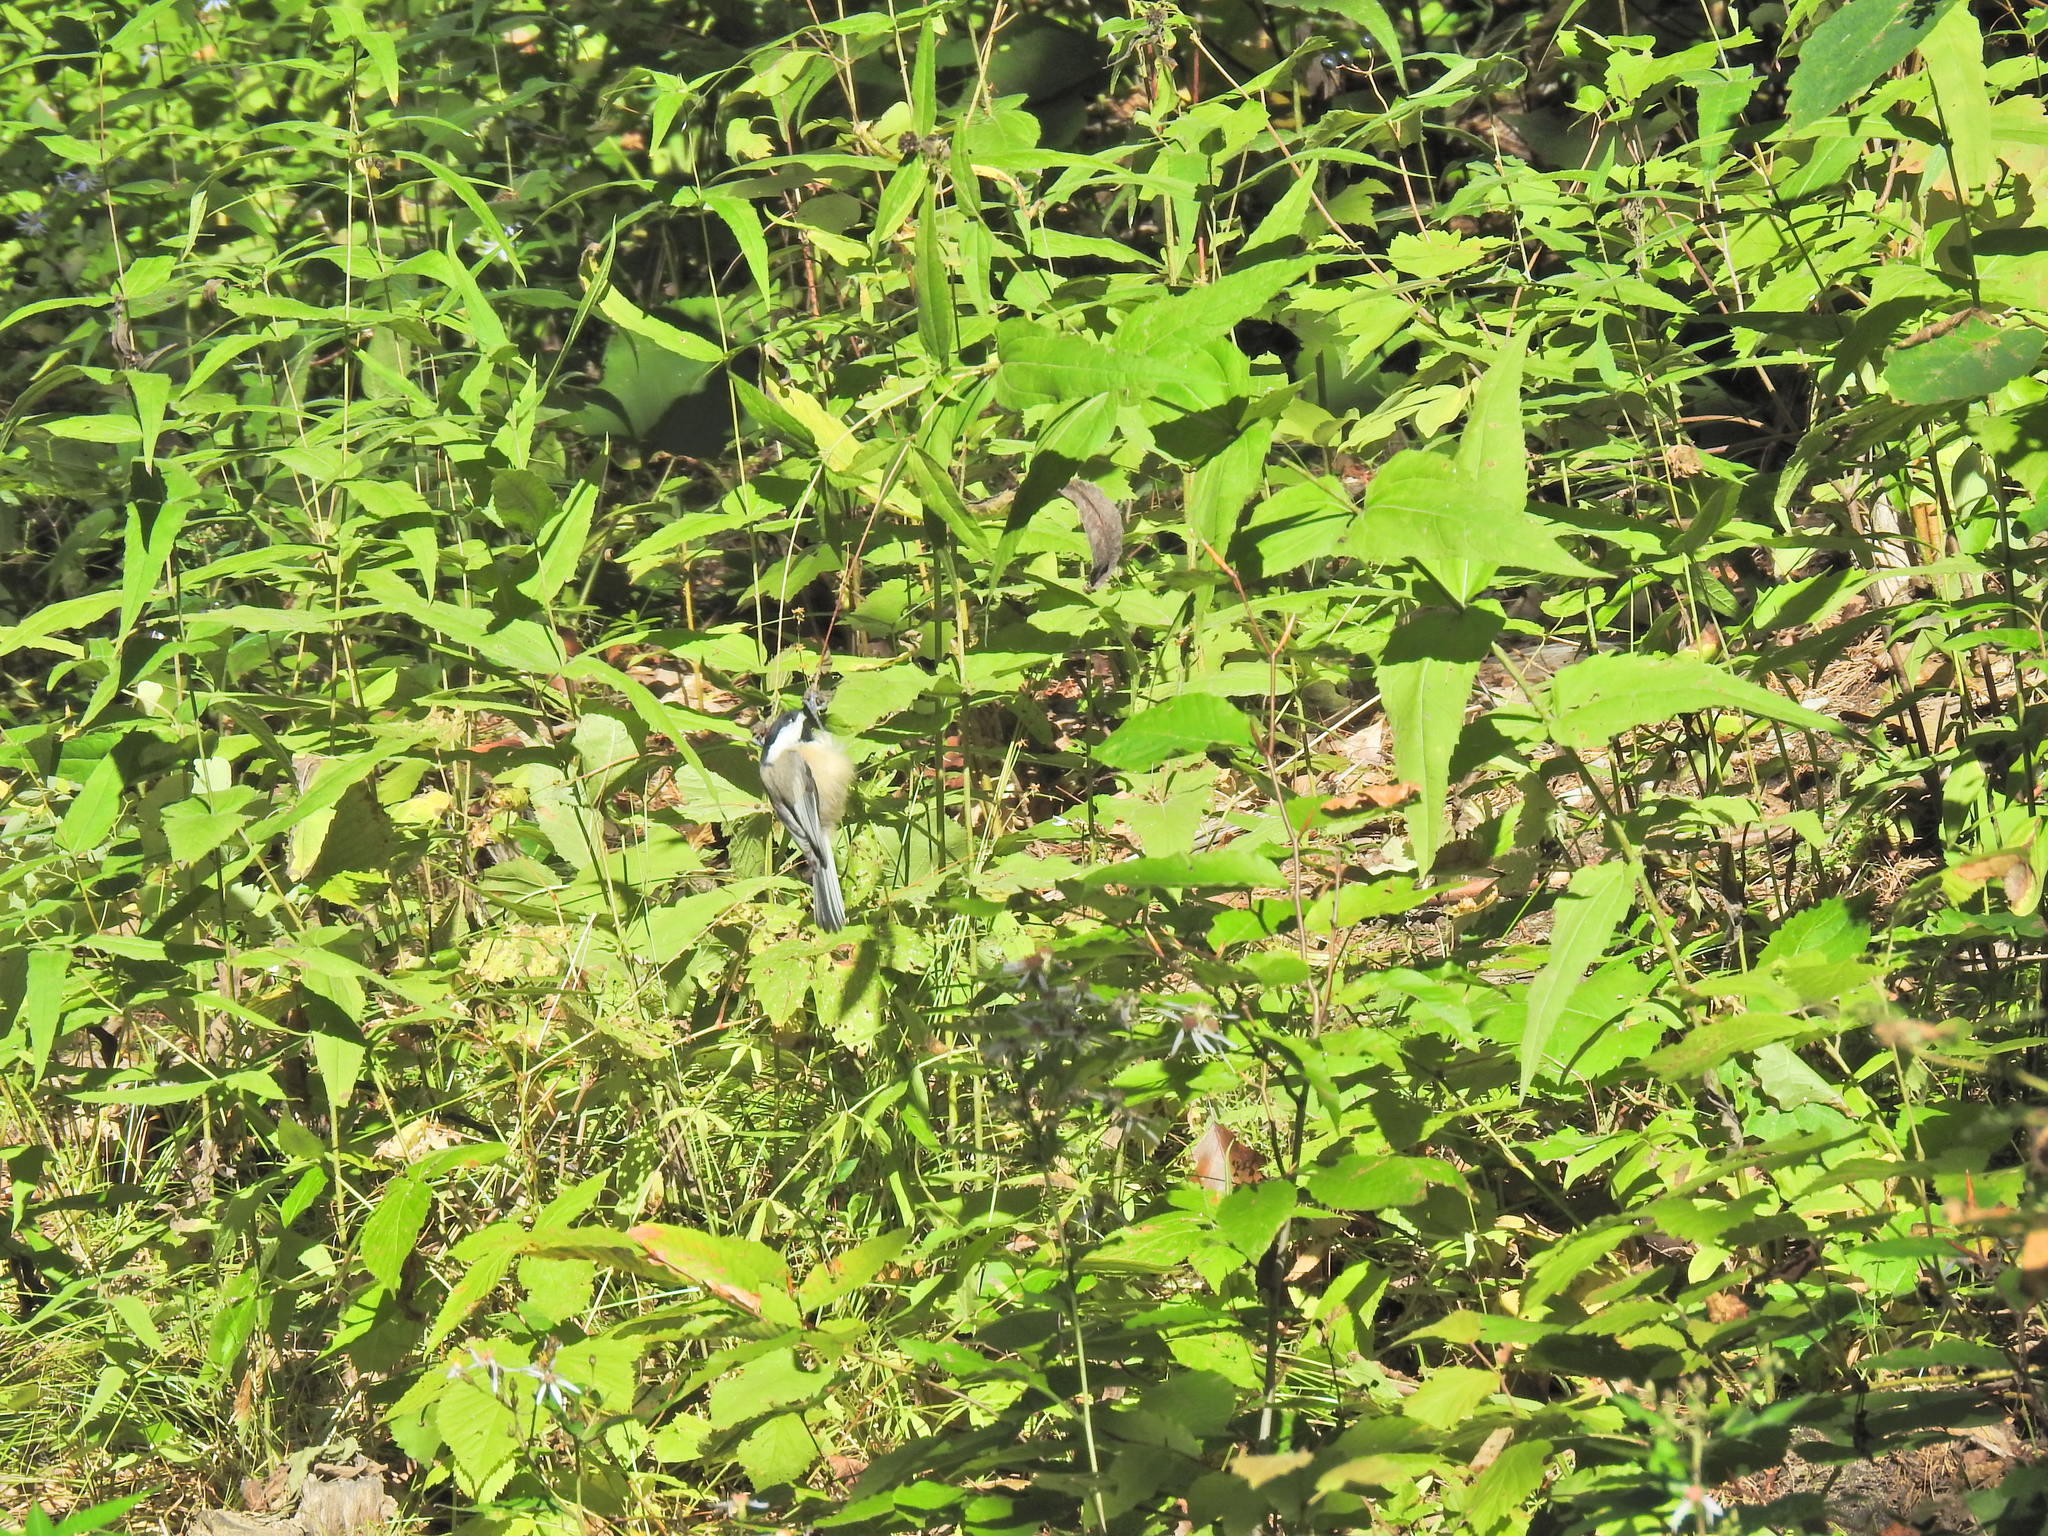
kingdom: Animalia
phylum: Chordata
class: Aves
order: Passeriformes
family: Paridae
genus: Poecile
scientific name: Poecile atricapillus
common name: Black-capped chickadee
